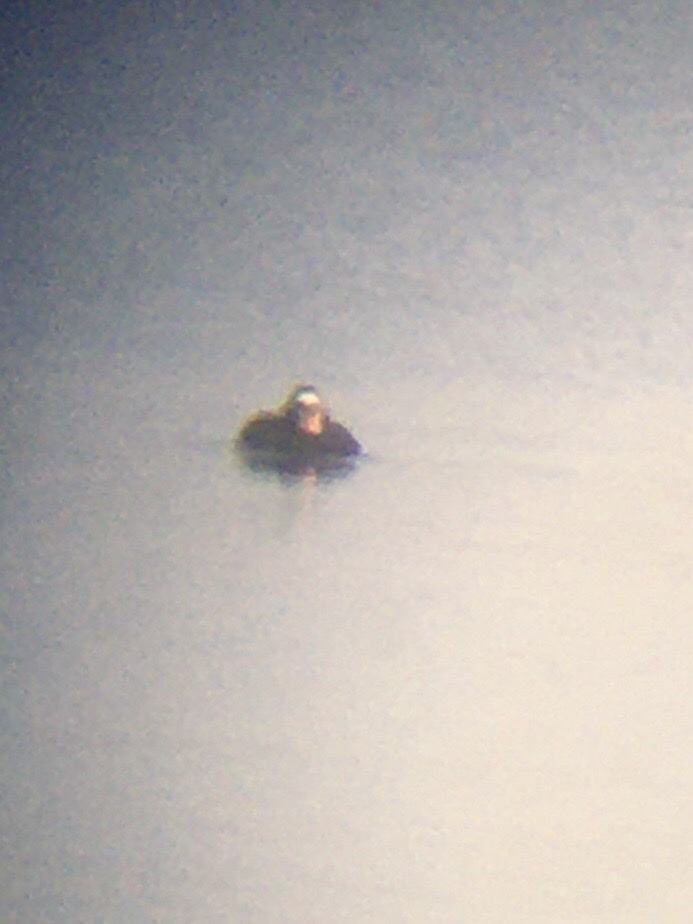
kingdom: Animalia
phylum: Chordata
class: Aves
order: Anseriformes
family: Anatidae
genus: Melanitta
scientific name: Melanitta perspicillata
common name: Surf scoter
